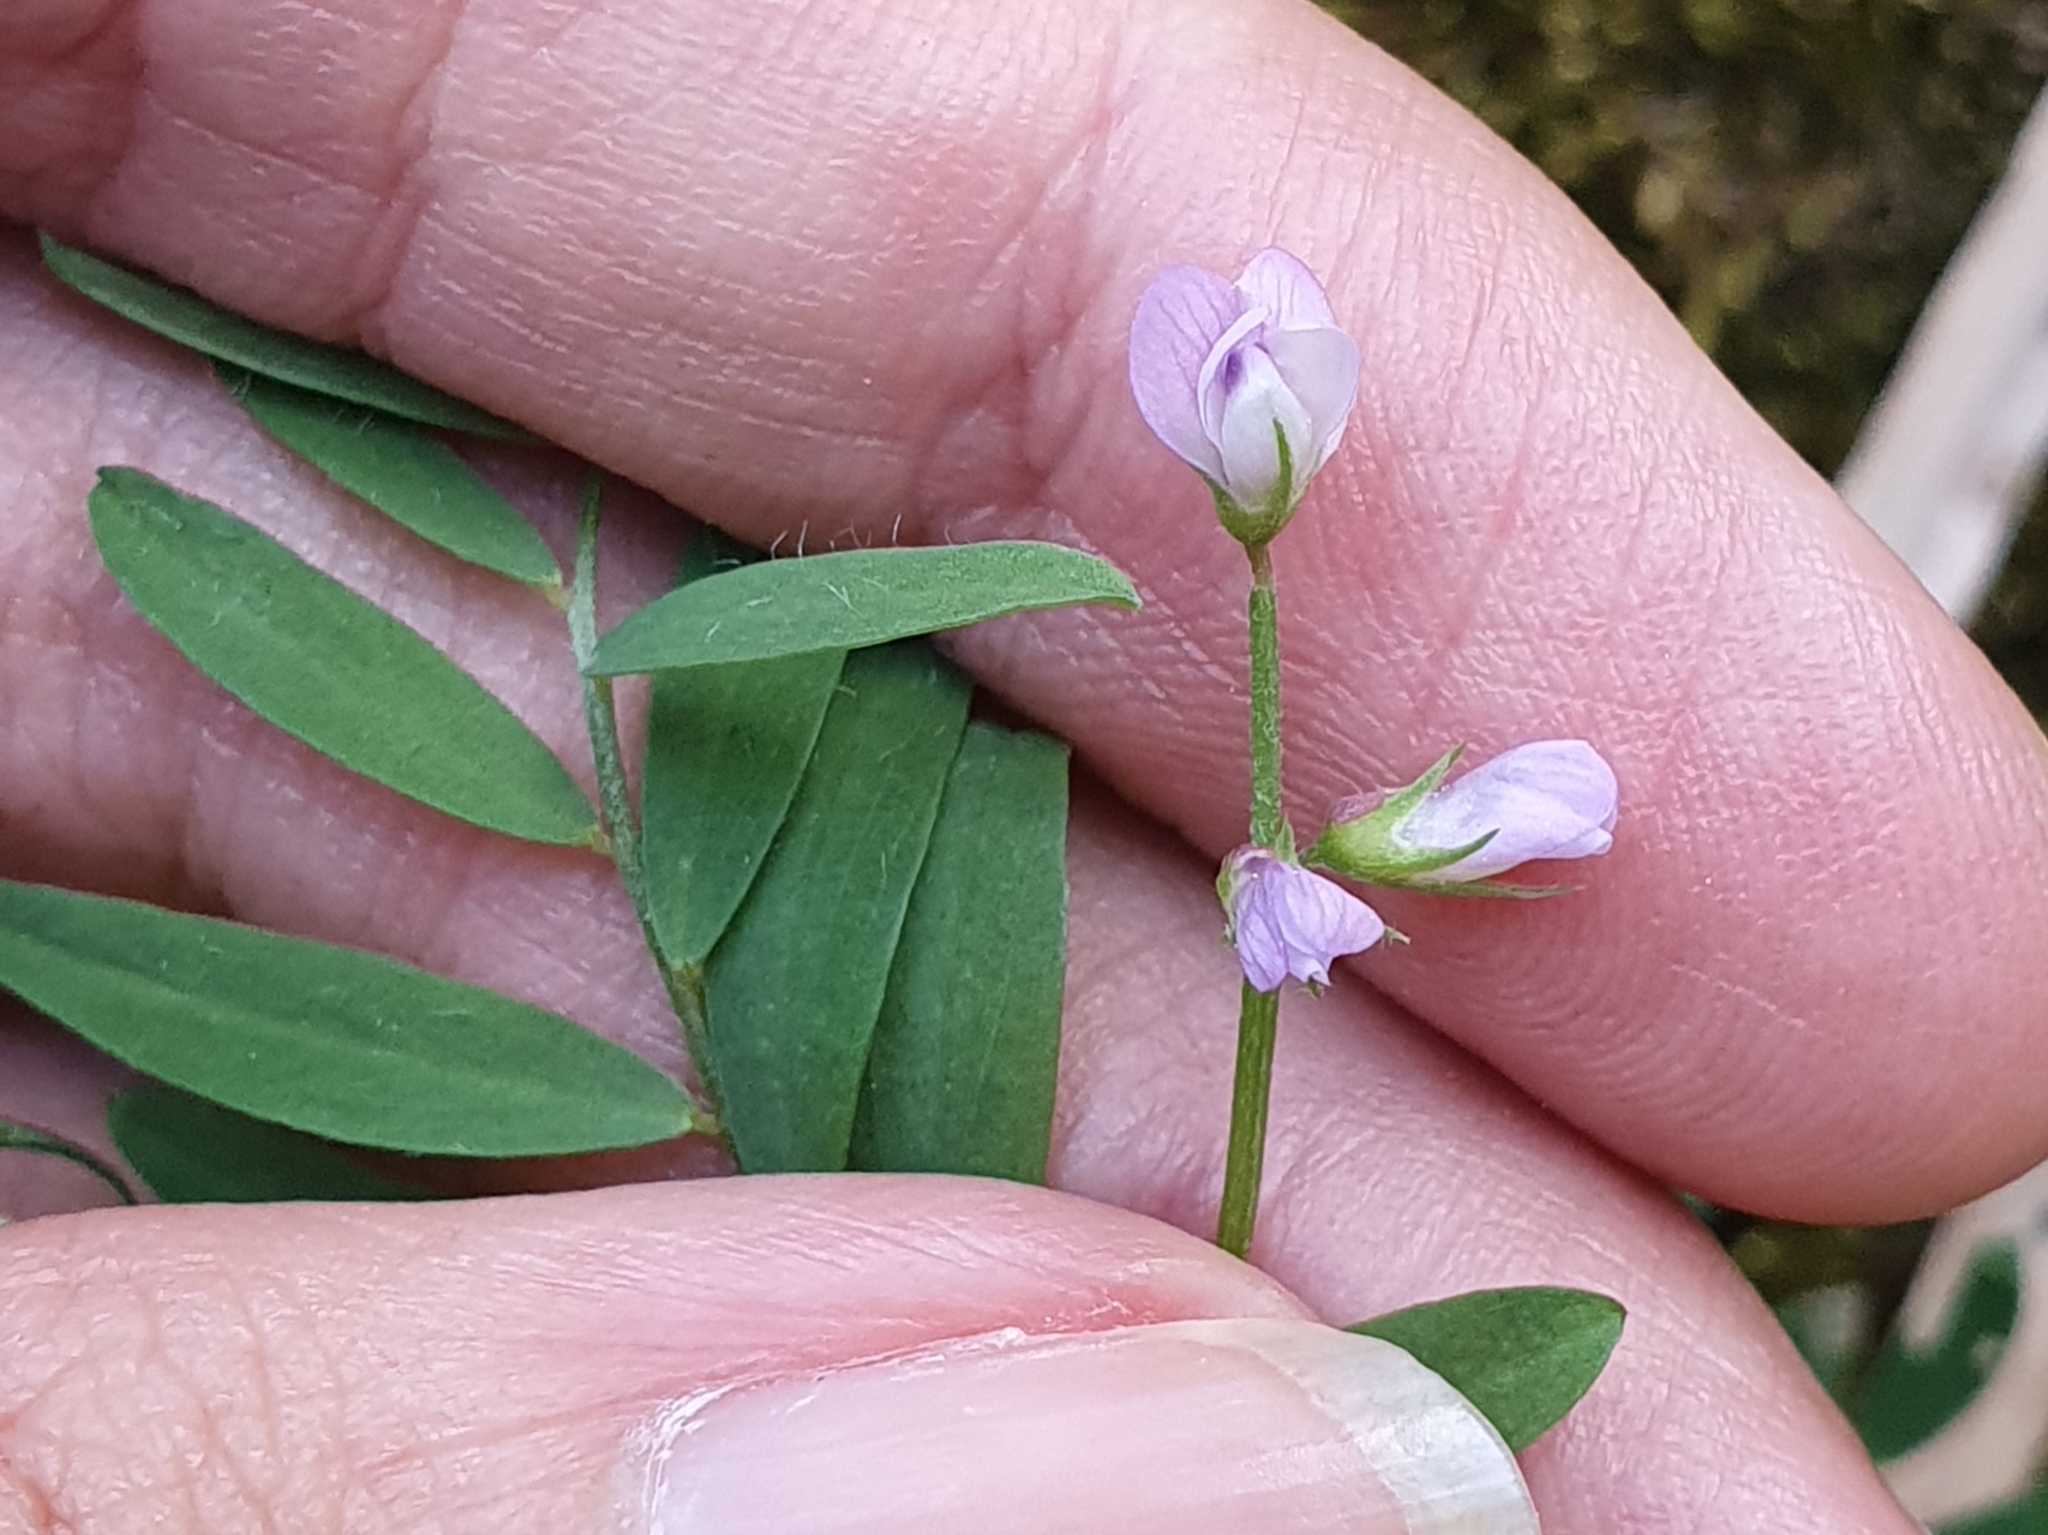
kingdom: Plantae
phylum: Tracheophyta
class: Magnoliopsida
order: Fabales
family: Fabaceae
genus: Vicia
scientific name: Vicia pubescens
